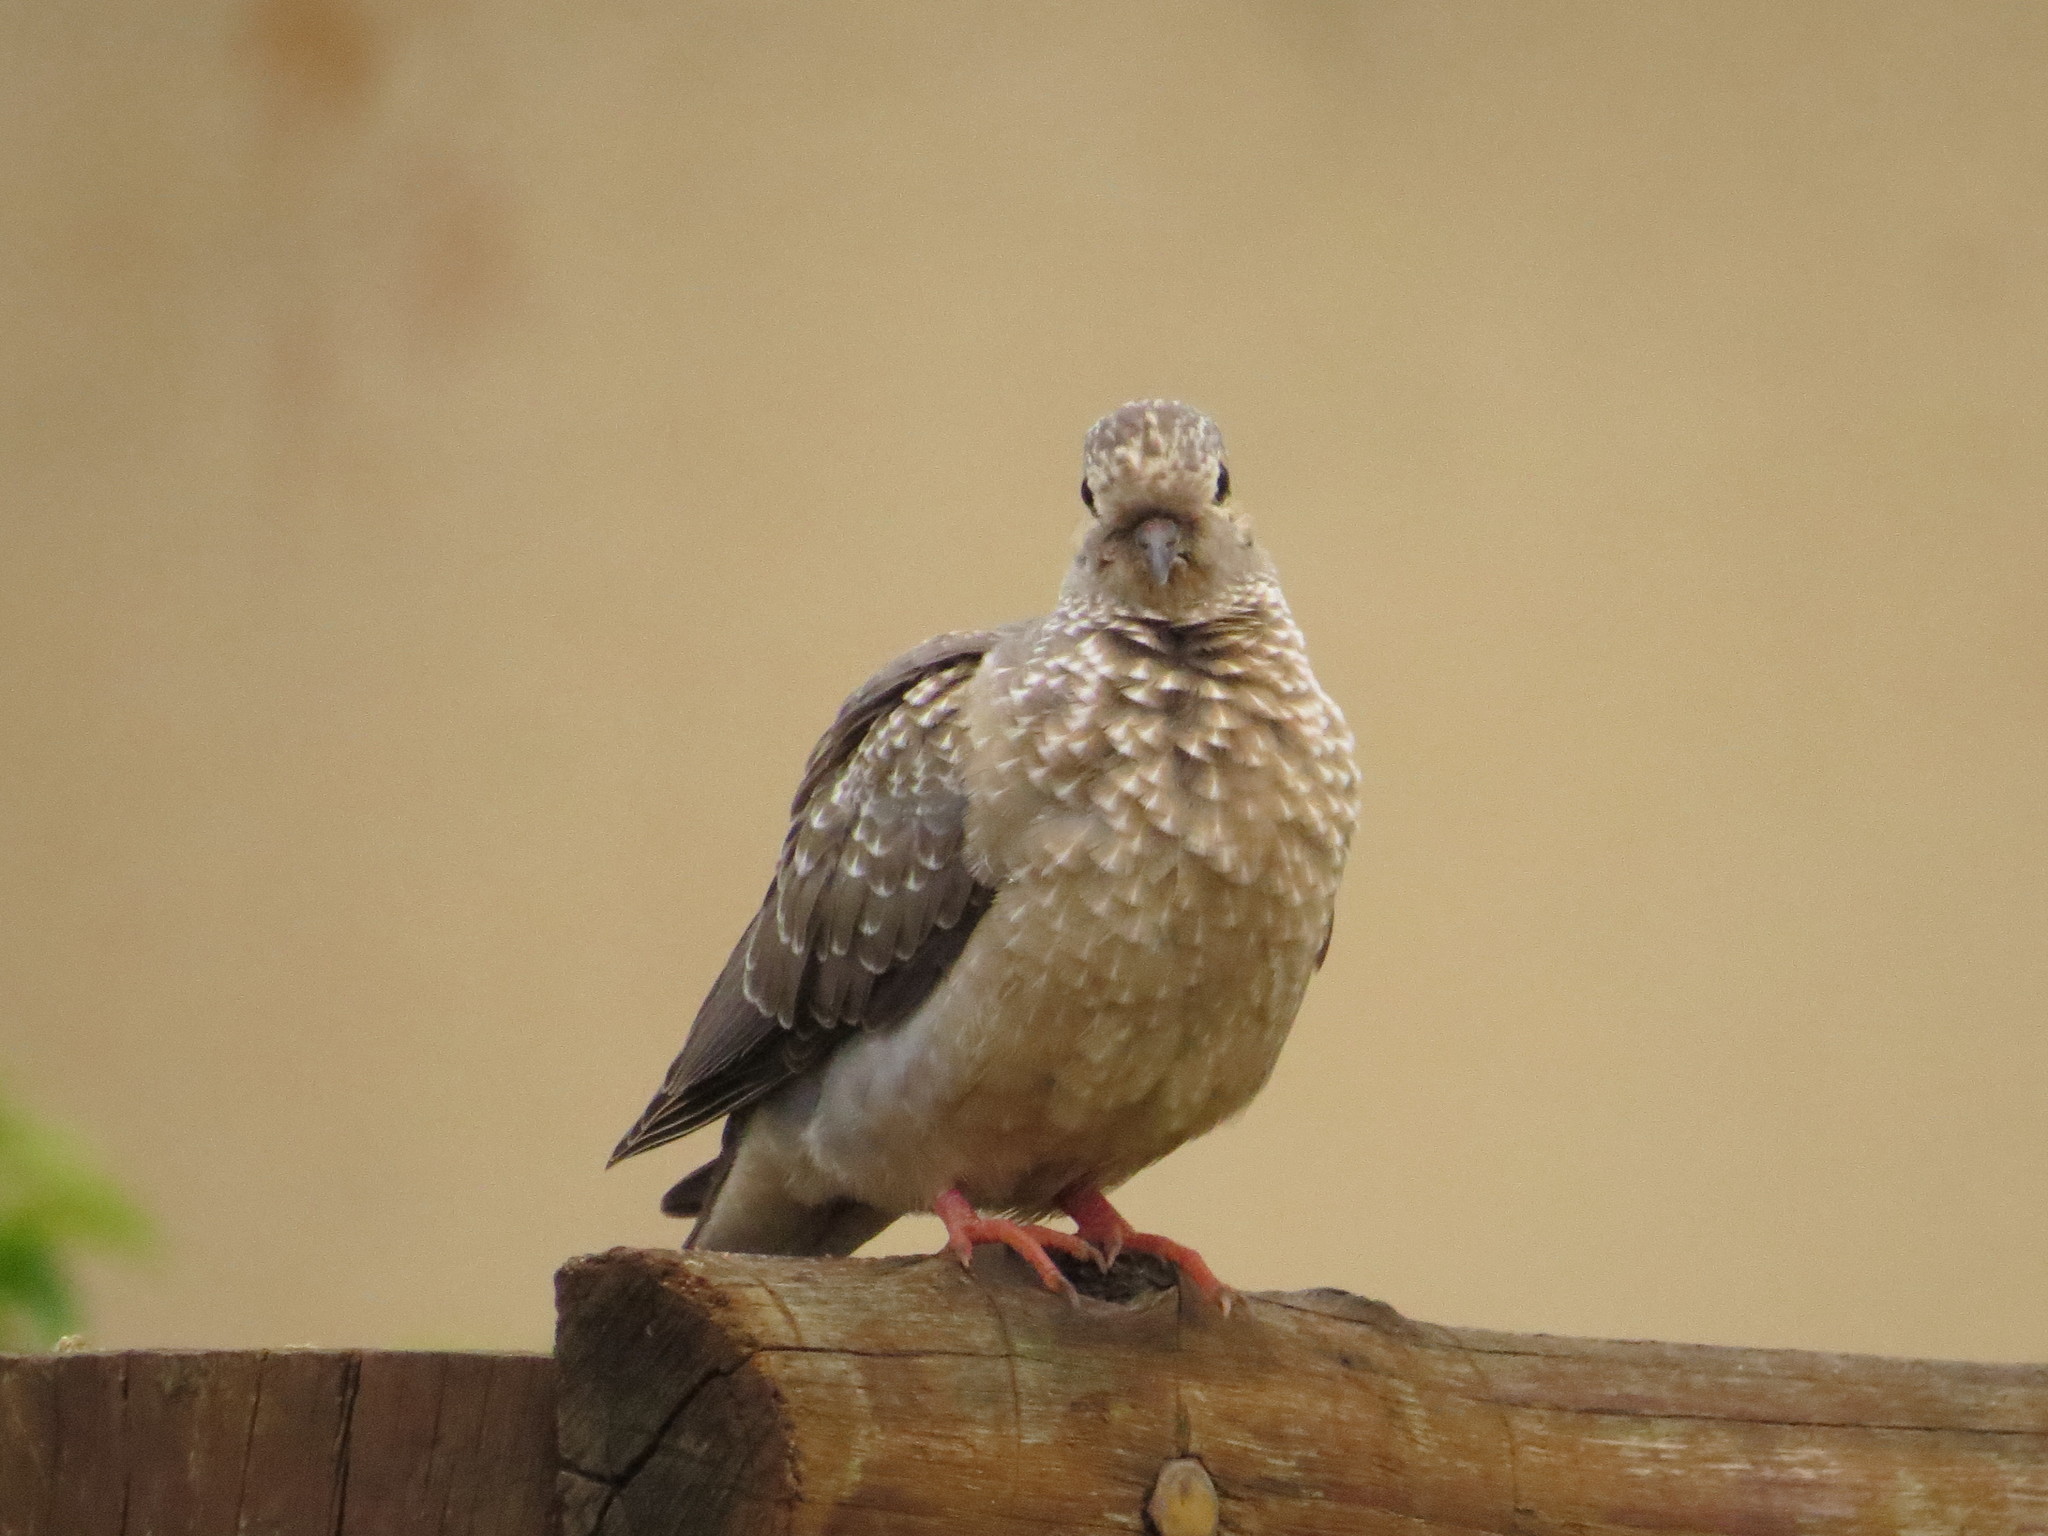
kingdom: Animalia
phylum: Chordata
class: Aves
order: Columbiformes
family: Columbidae
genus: Zenaida
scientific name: Zenaida auriculata
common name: Eared dove
